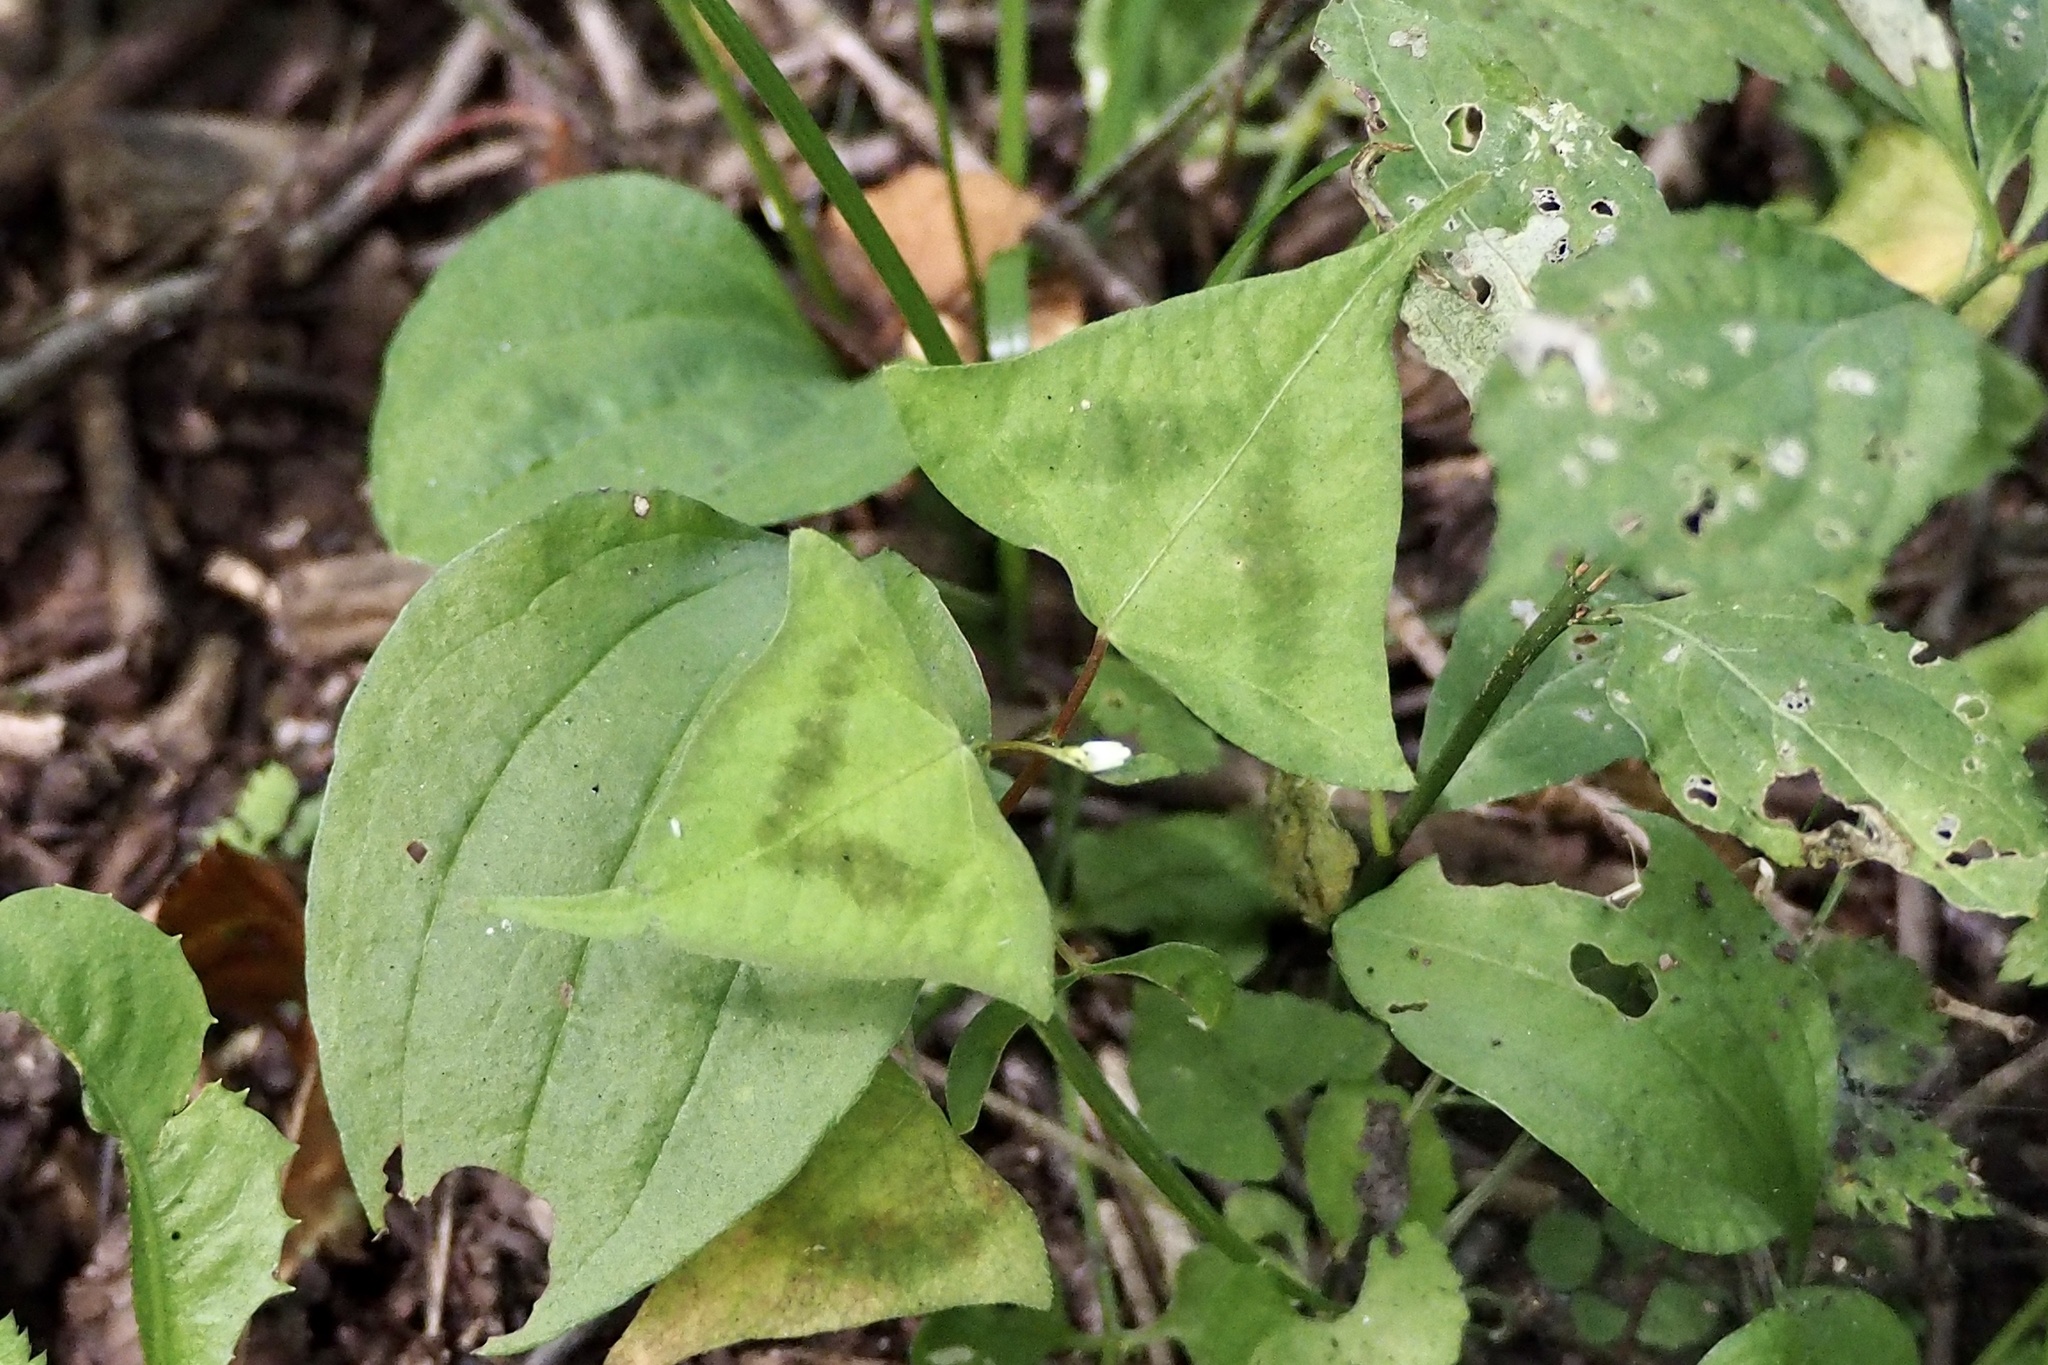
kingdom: Plantae
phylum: Tracheophyta
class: Magnoliopsida
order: Caryophyllales
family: Polygonaceae
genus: Persicaria
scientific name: Persicaria debilis
